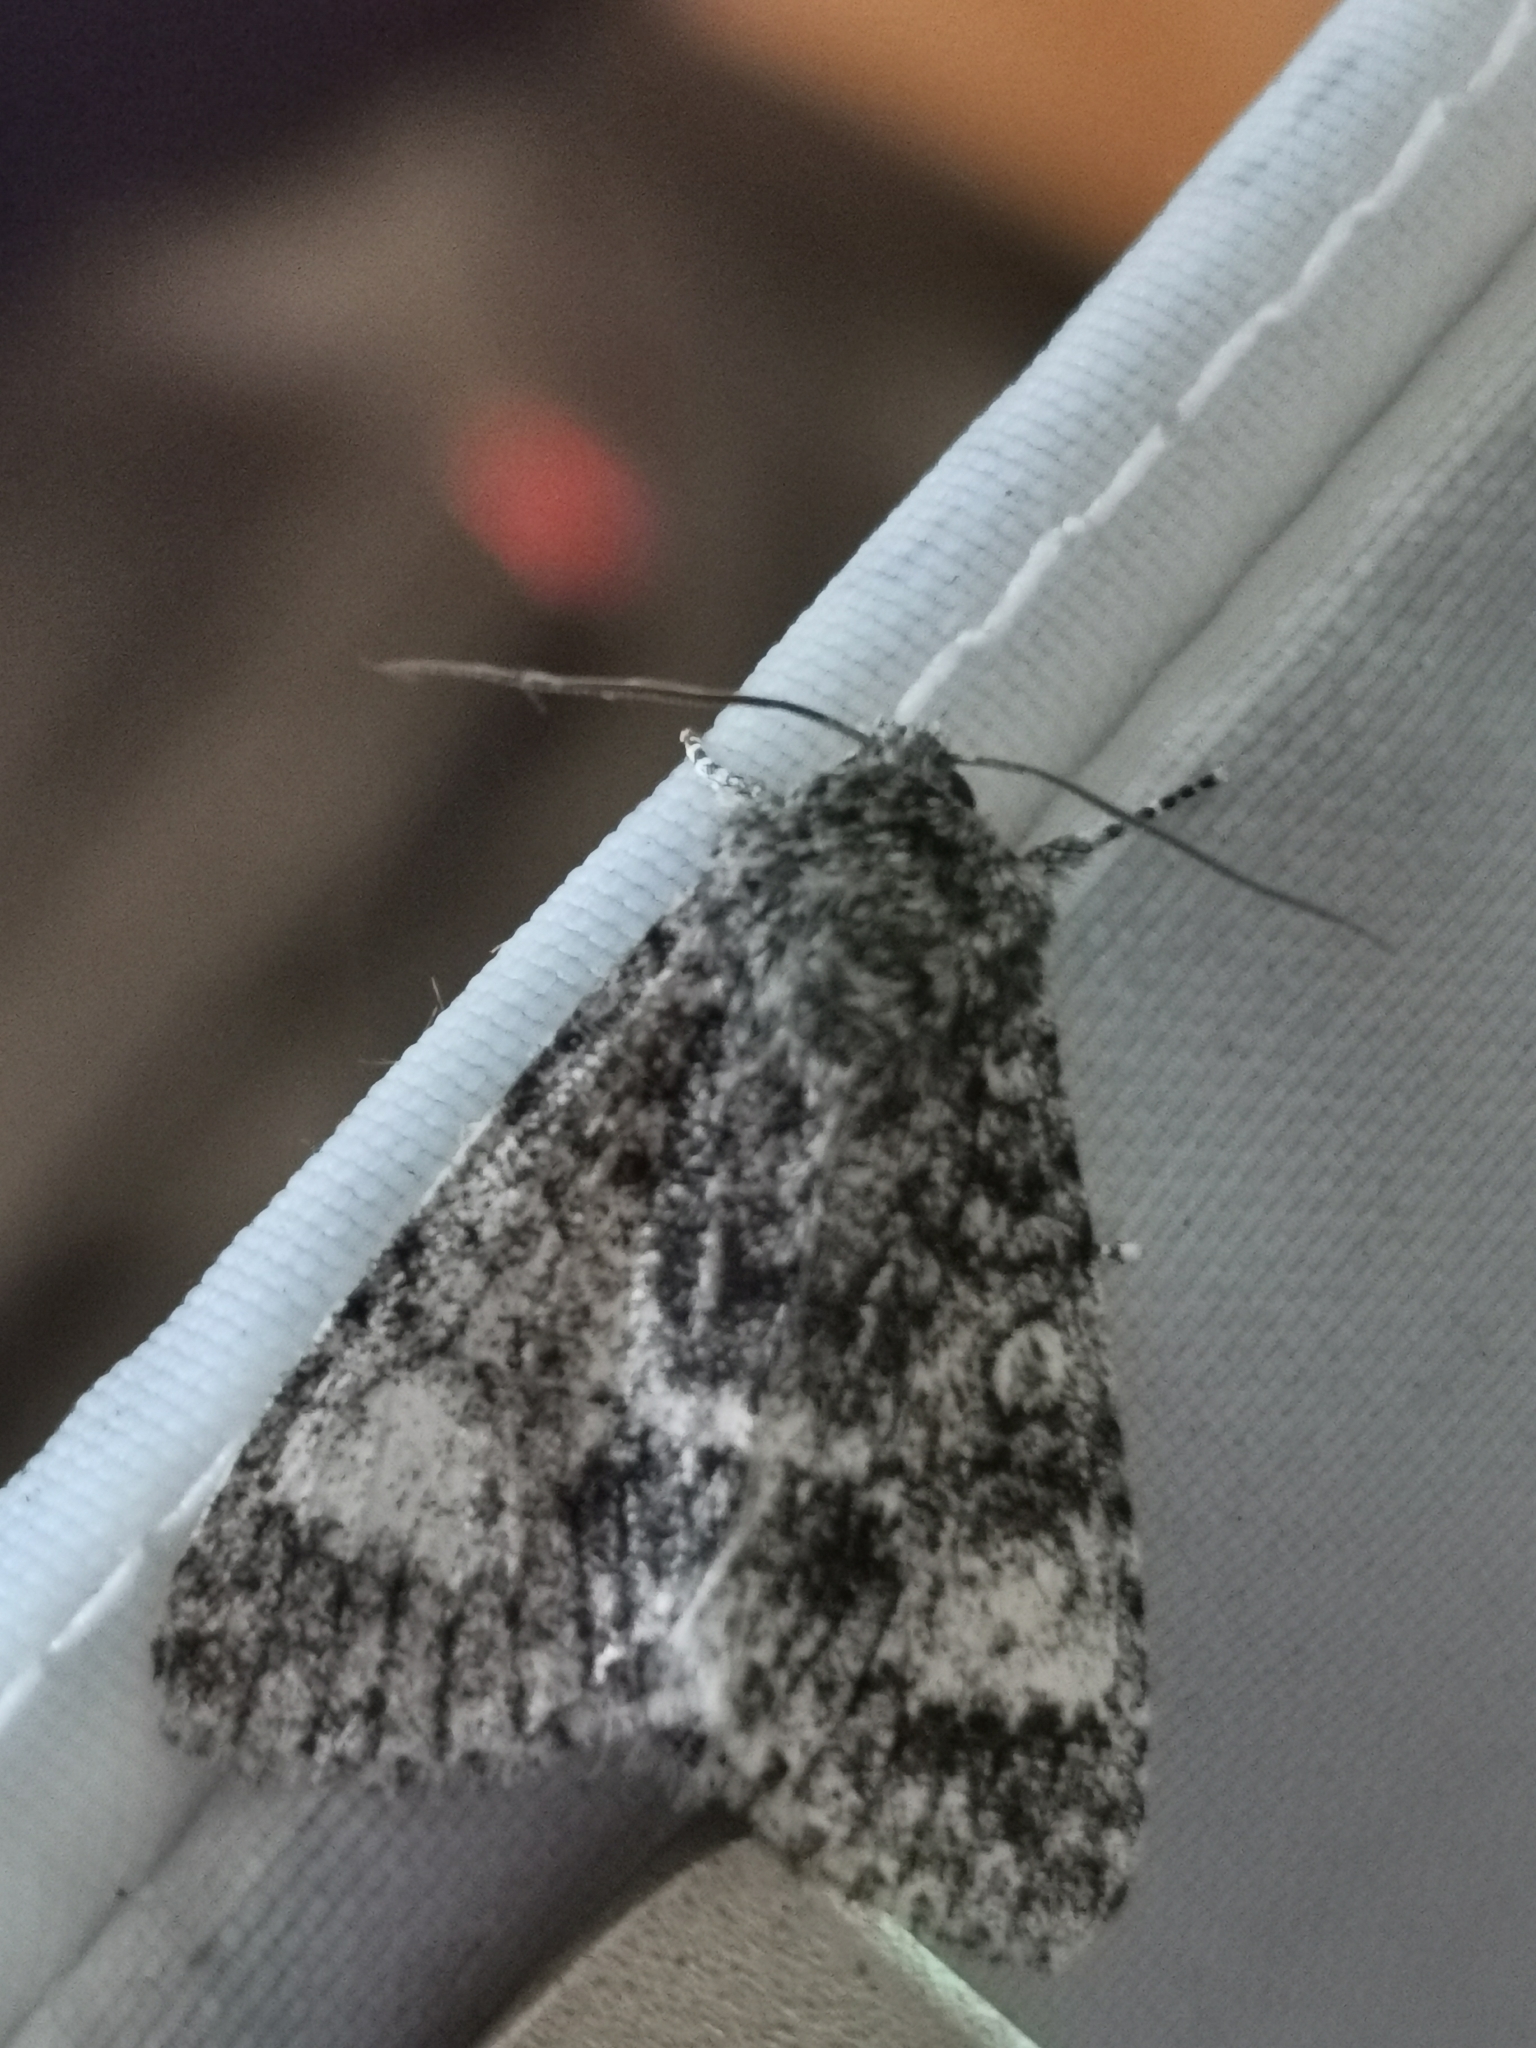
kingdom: Animalia
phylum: Arthropoda
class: Insecta
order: Lepidoptera
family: Noctuidae
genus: Acronicta
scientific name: Acronicta megacephala
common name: Poplar grey
